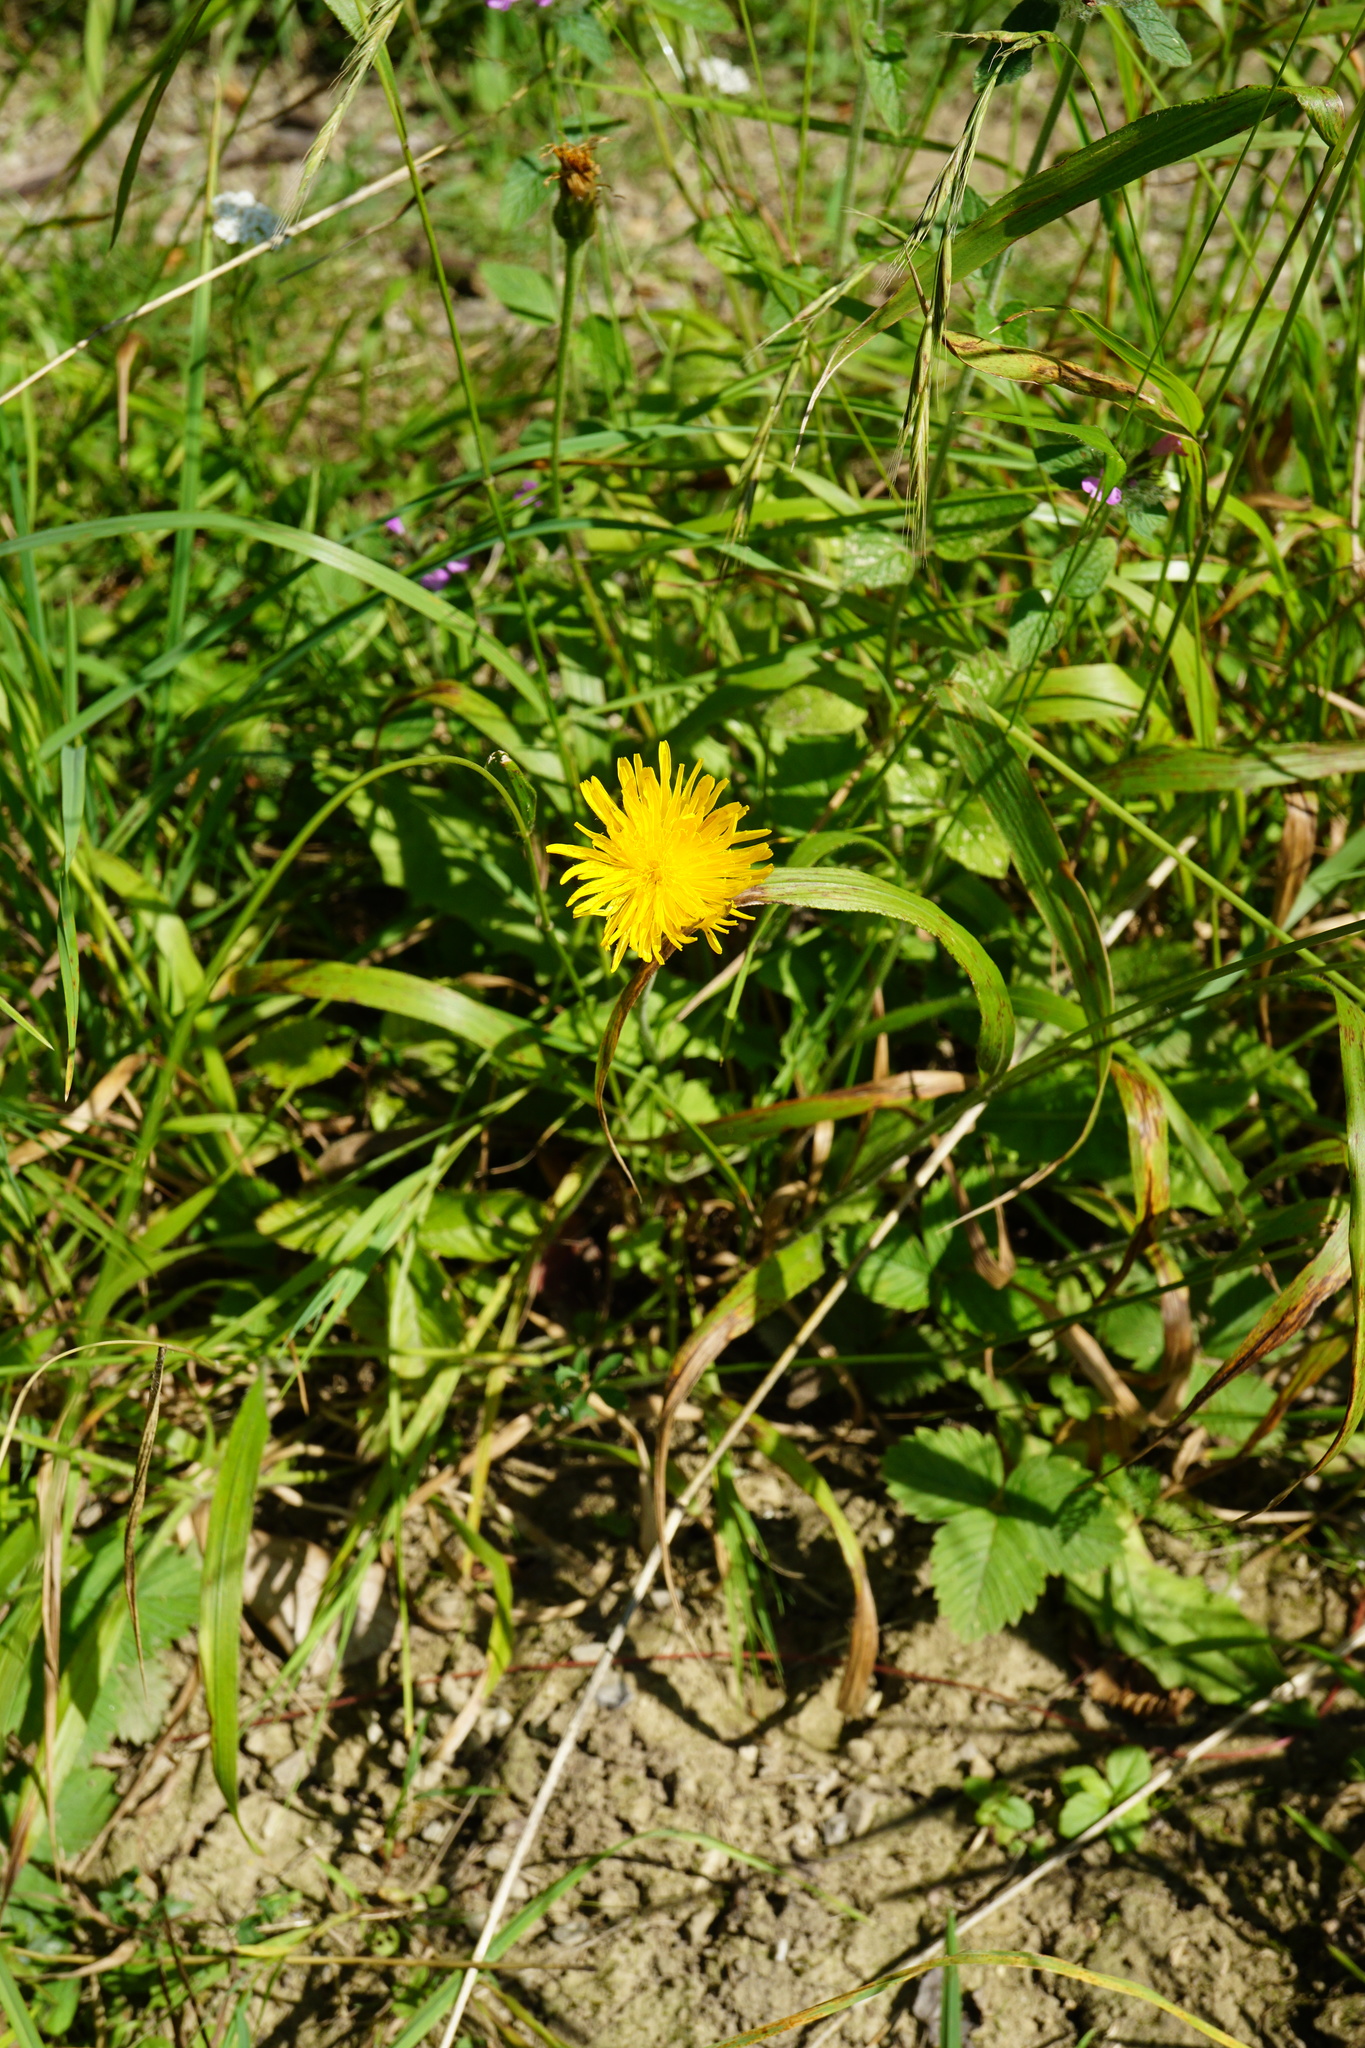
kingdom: Plantae
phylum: Tracheophyta
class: Magnoliopsida
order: Asterales
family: Asteraceae
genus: Leontodon
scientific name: Leontodon hispidus
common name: Rough hawkbit
